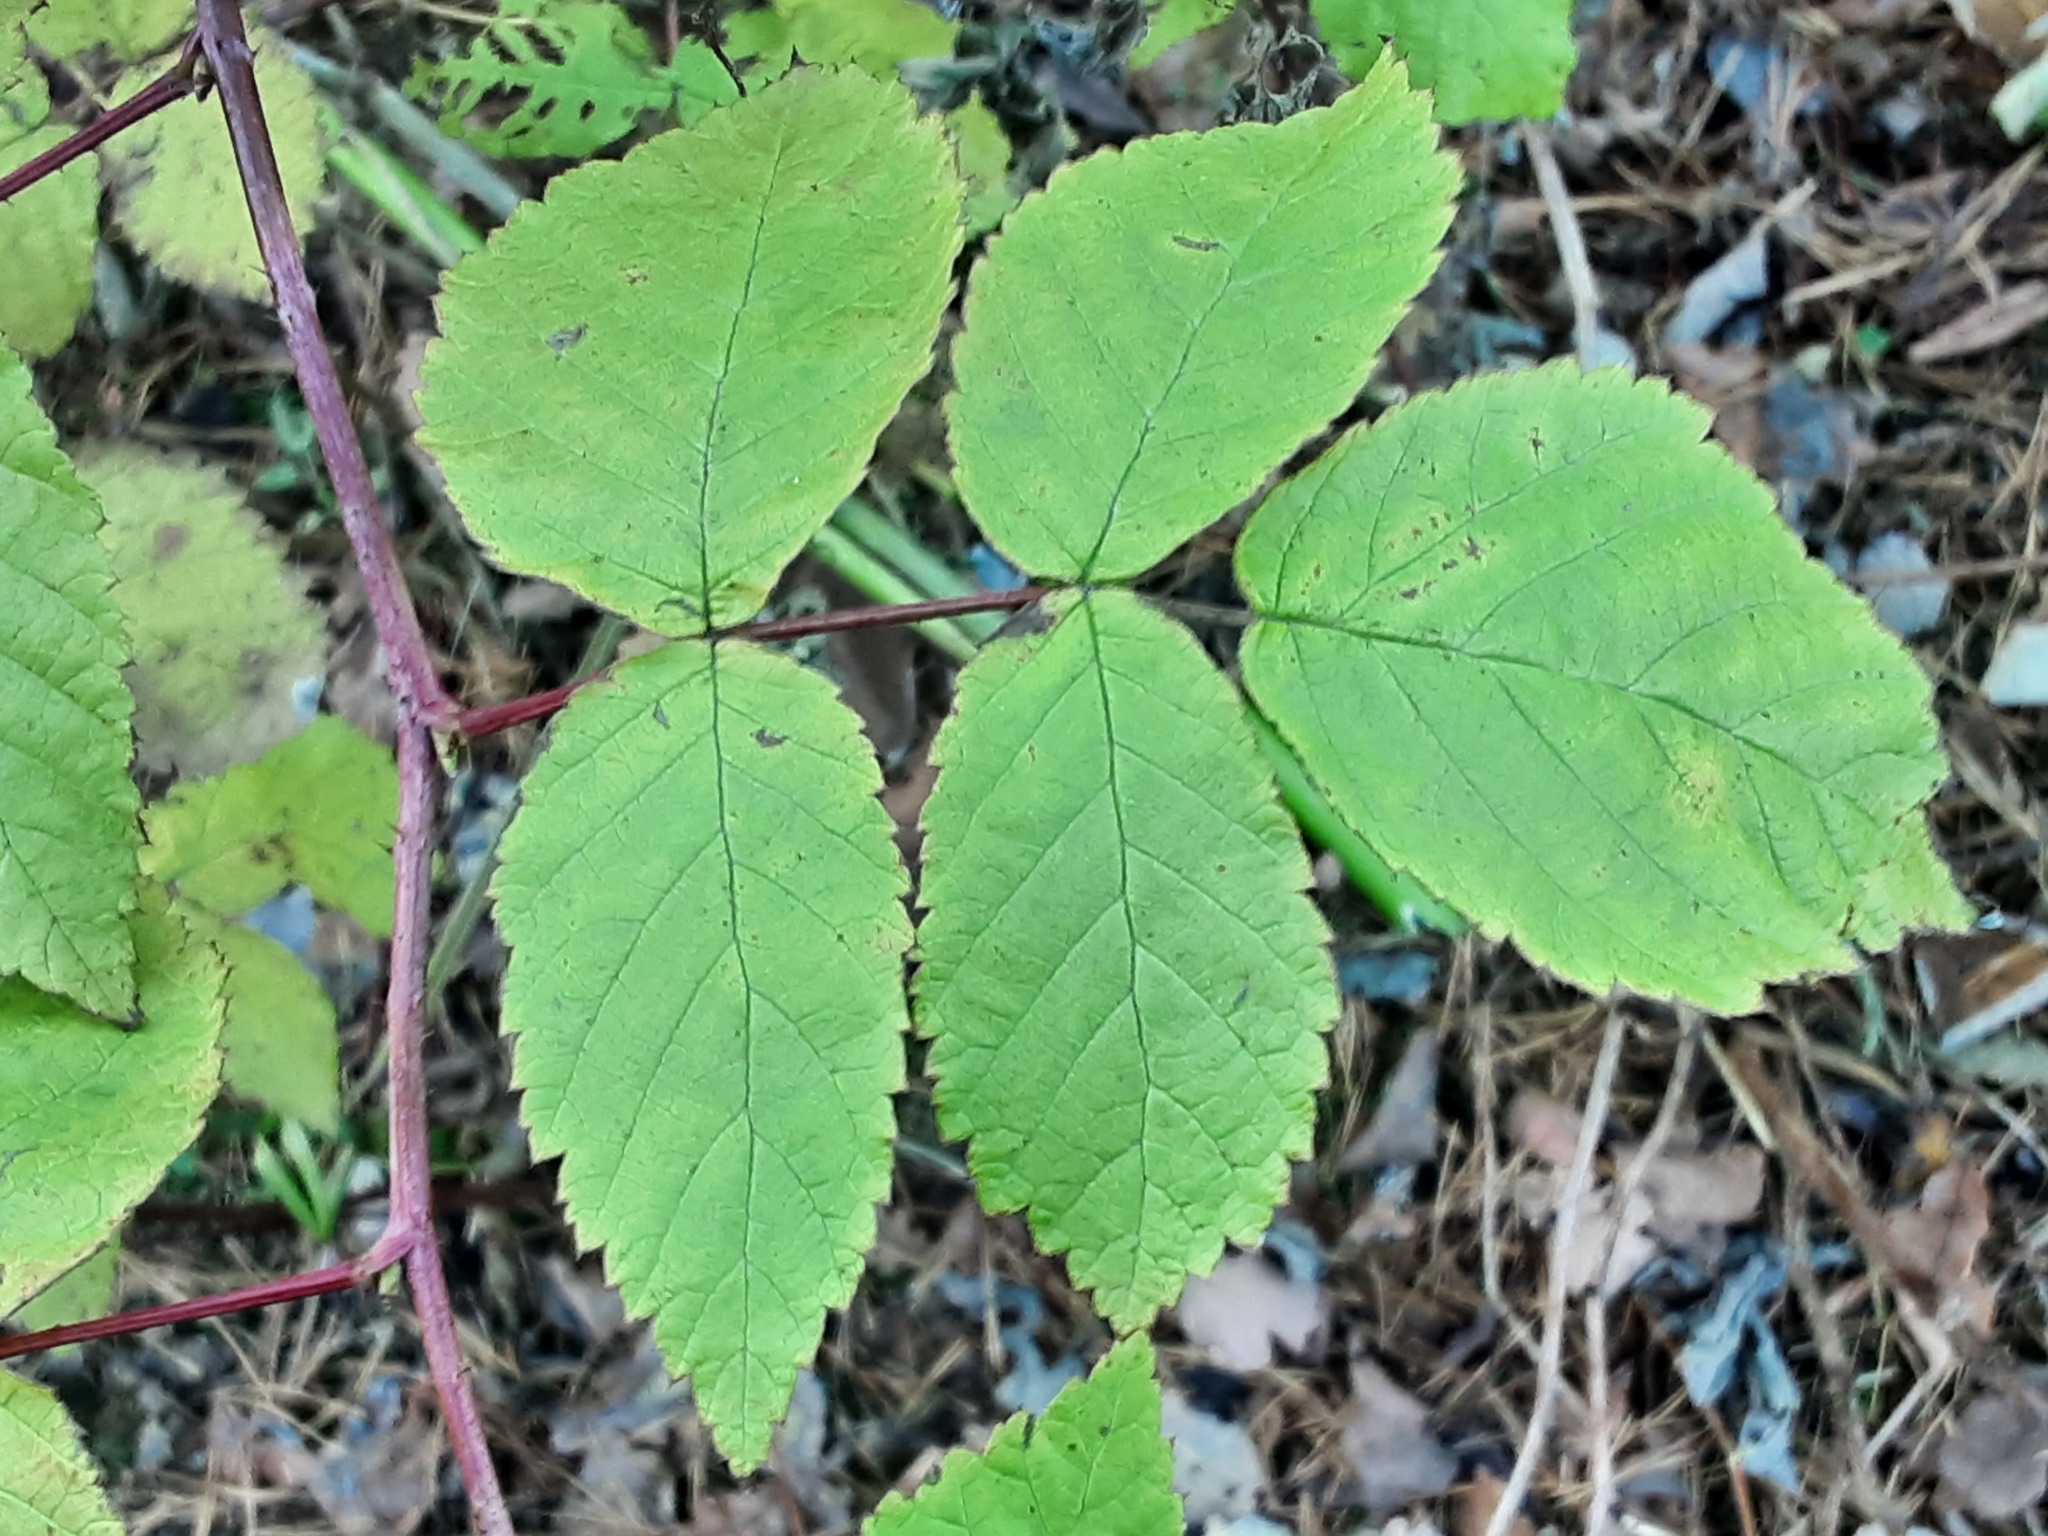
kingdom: Plantae
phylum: Tracheophyta
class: Magnoliopsida
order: Rosales
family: Rosaceae
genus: Rubus
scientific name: Rubus idaeus
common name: Raspberry
